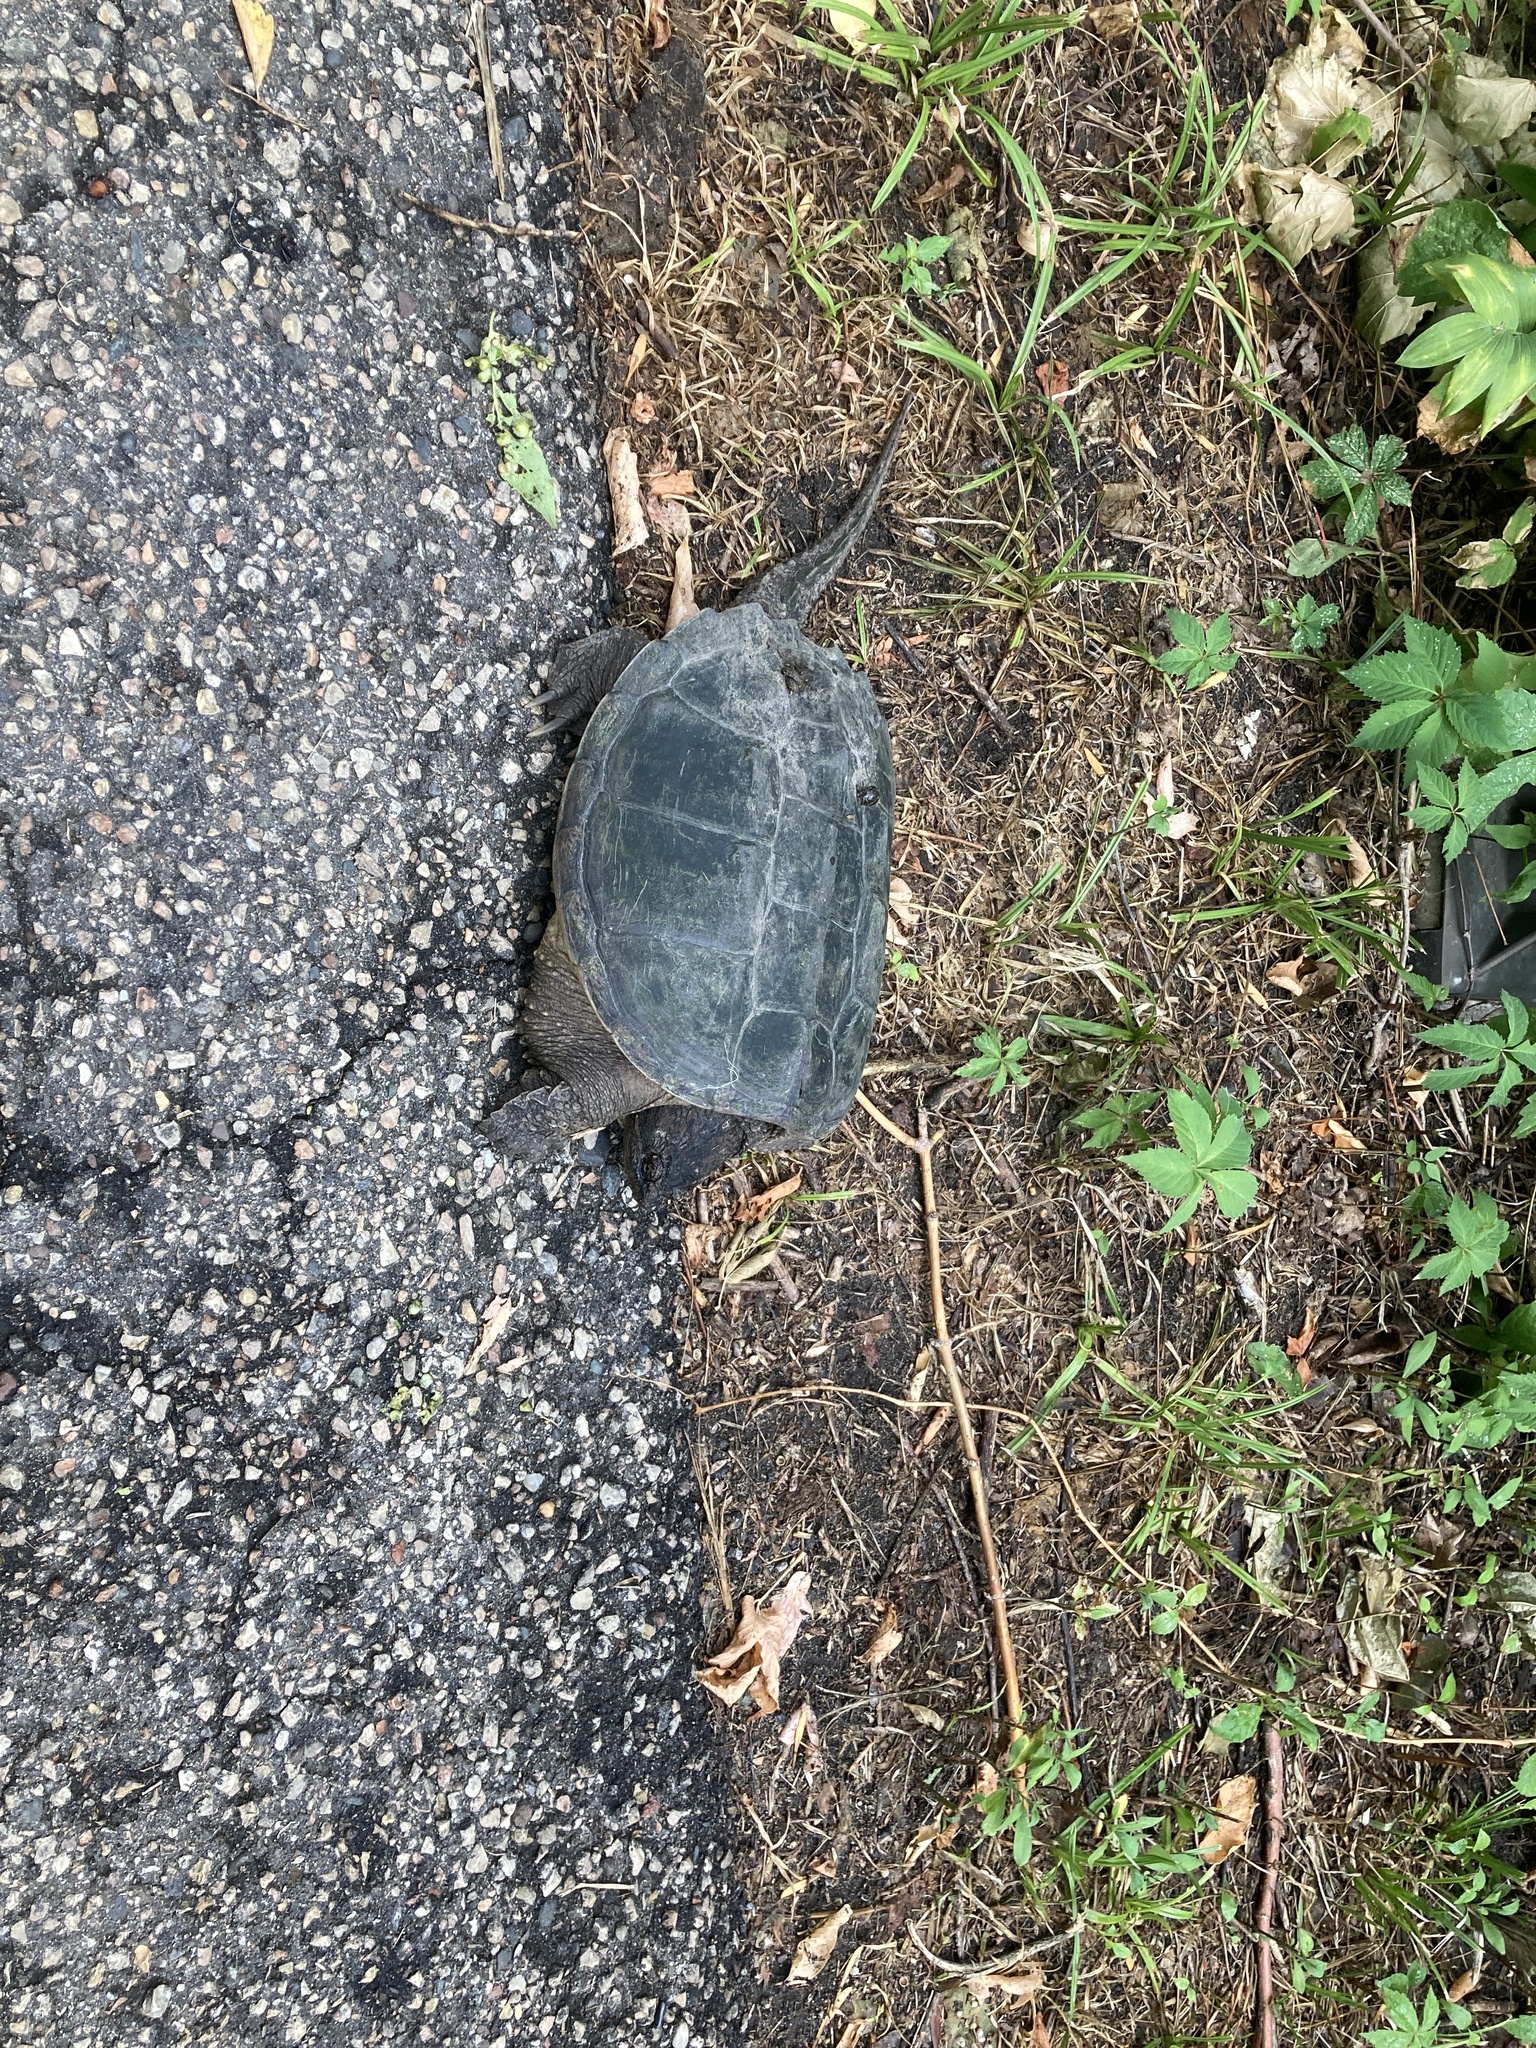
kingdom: Animalia
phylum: Chordata
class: Testudines
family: Chelydridae
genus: Chelydra
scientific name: Chelydra serpentina
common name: Common snapping turtle
